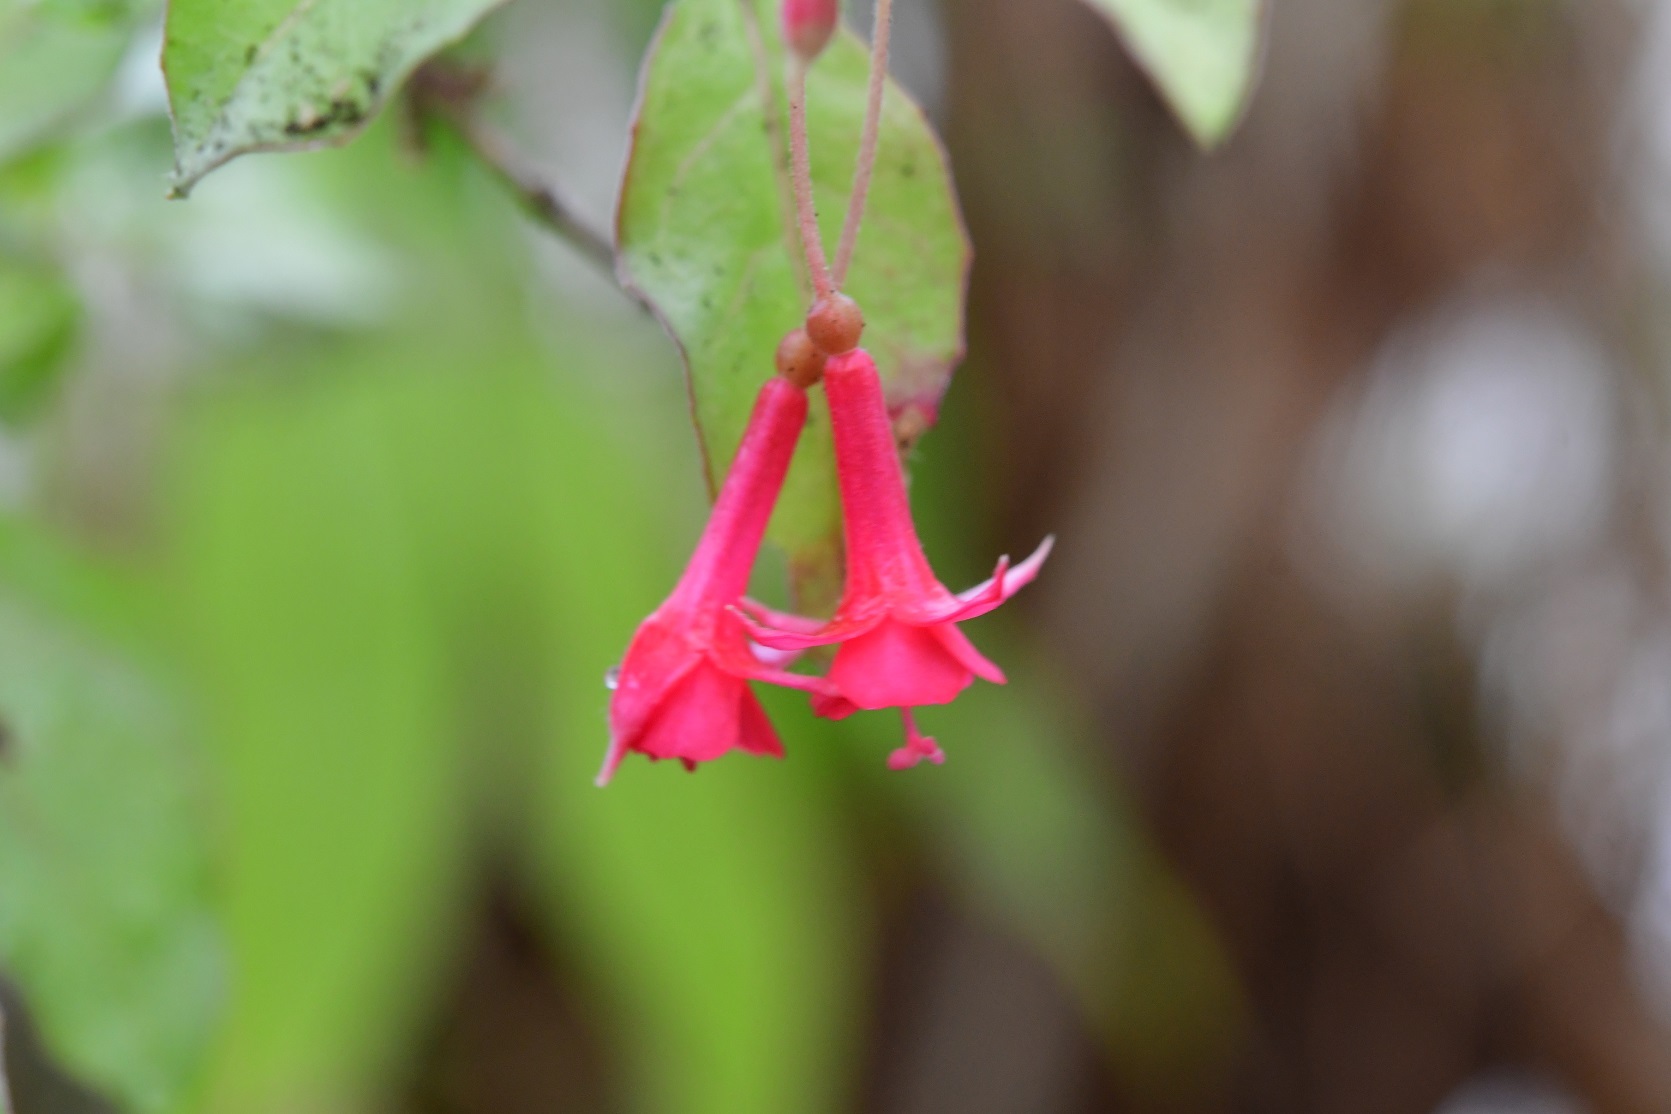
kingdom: Plantae
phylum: Tracheophyta
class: Magnoliopsida
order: Myrtales
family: Onagraceae
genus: Fuchsia
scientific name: Fuchsia thymifolia
